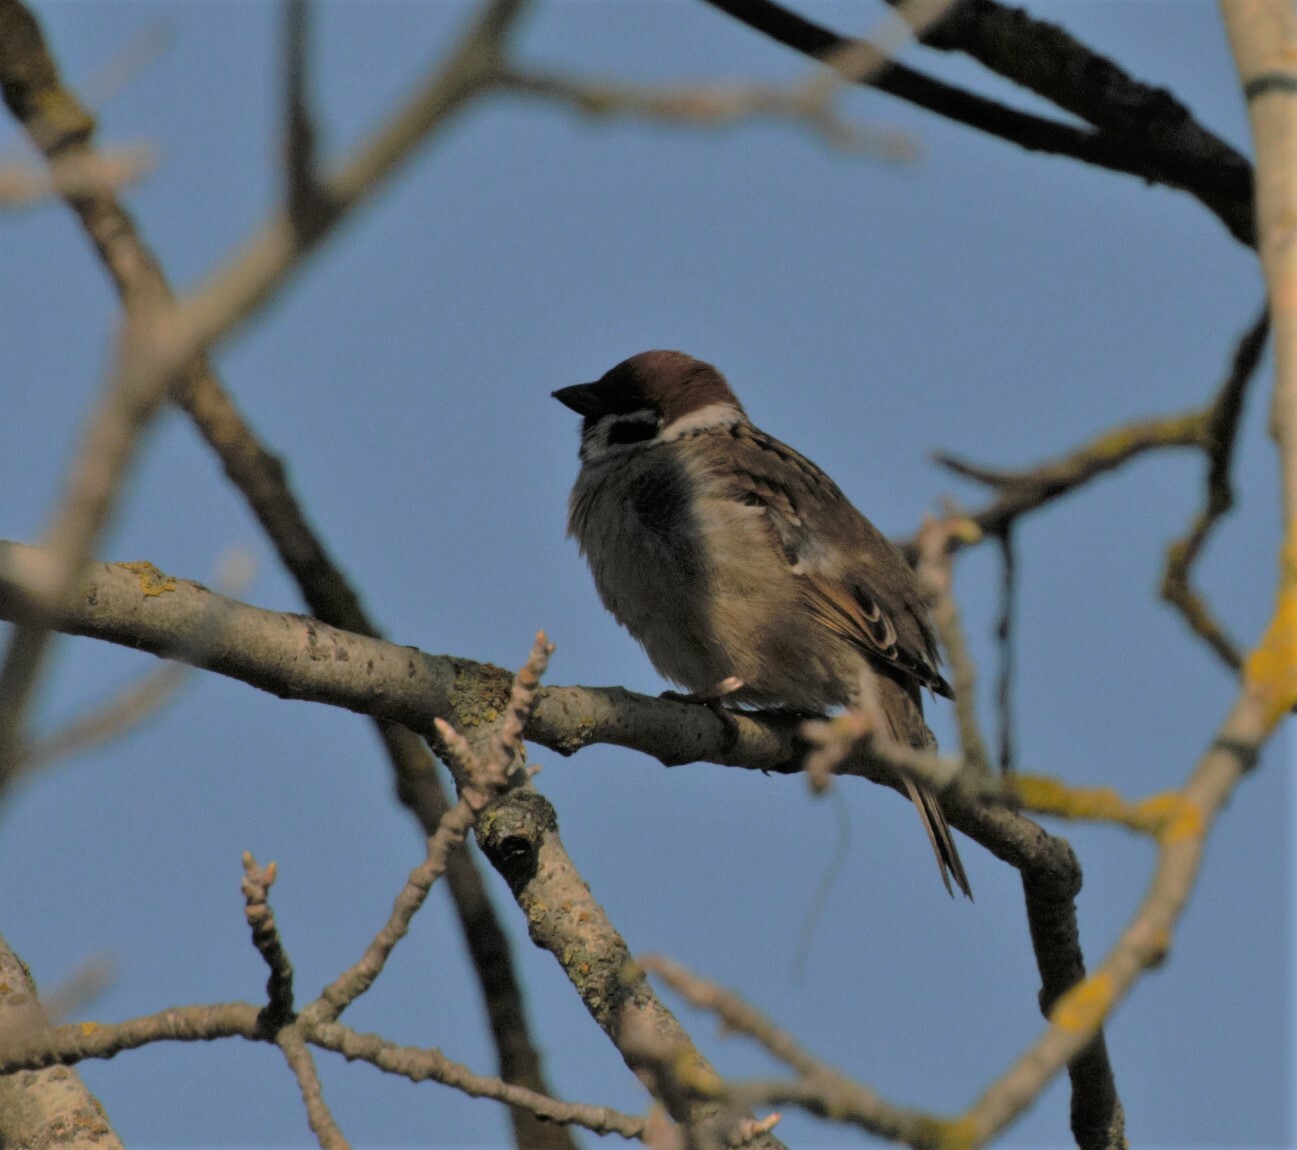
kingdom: Animalia
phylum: Chordata
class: Aves
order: Passeriformes
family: Passeridae
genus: Passer
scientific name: Passer montanus
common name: Eurasian tree sparrow
